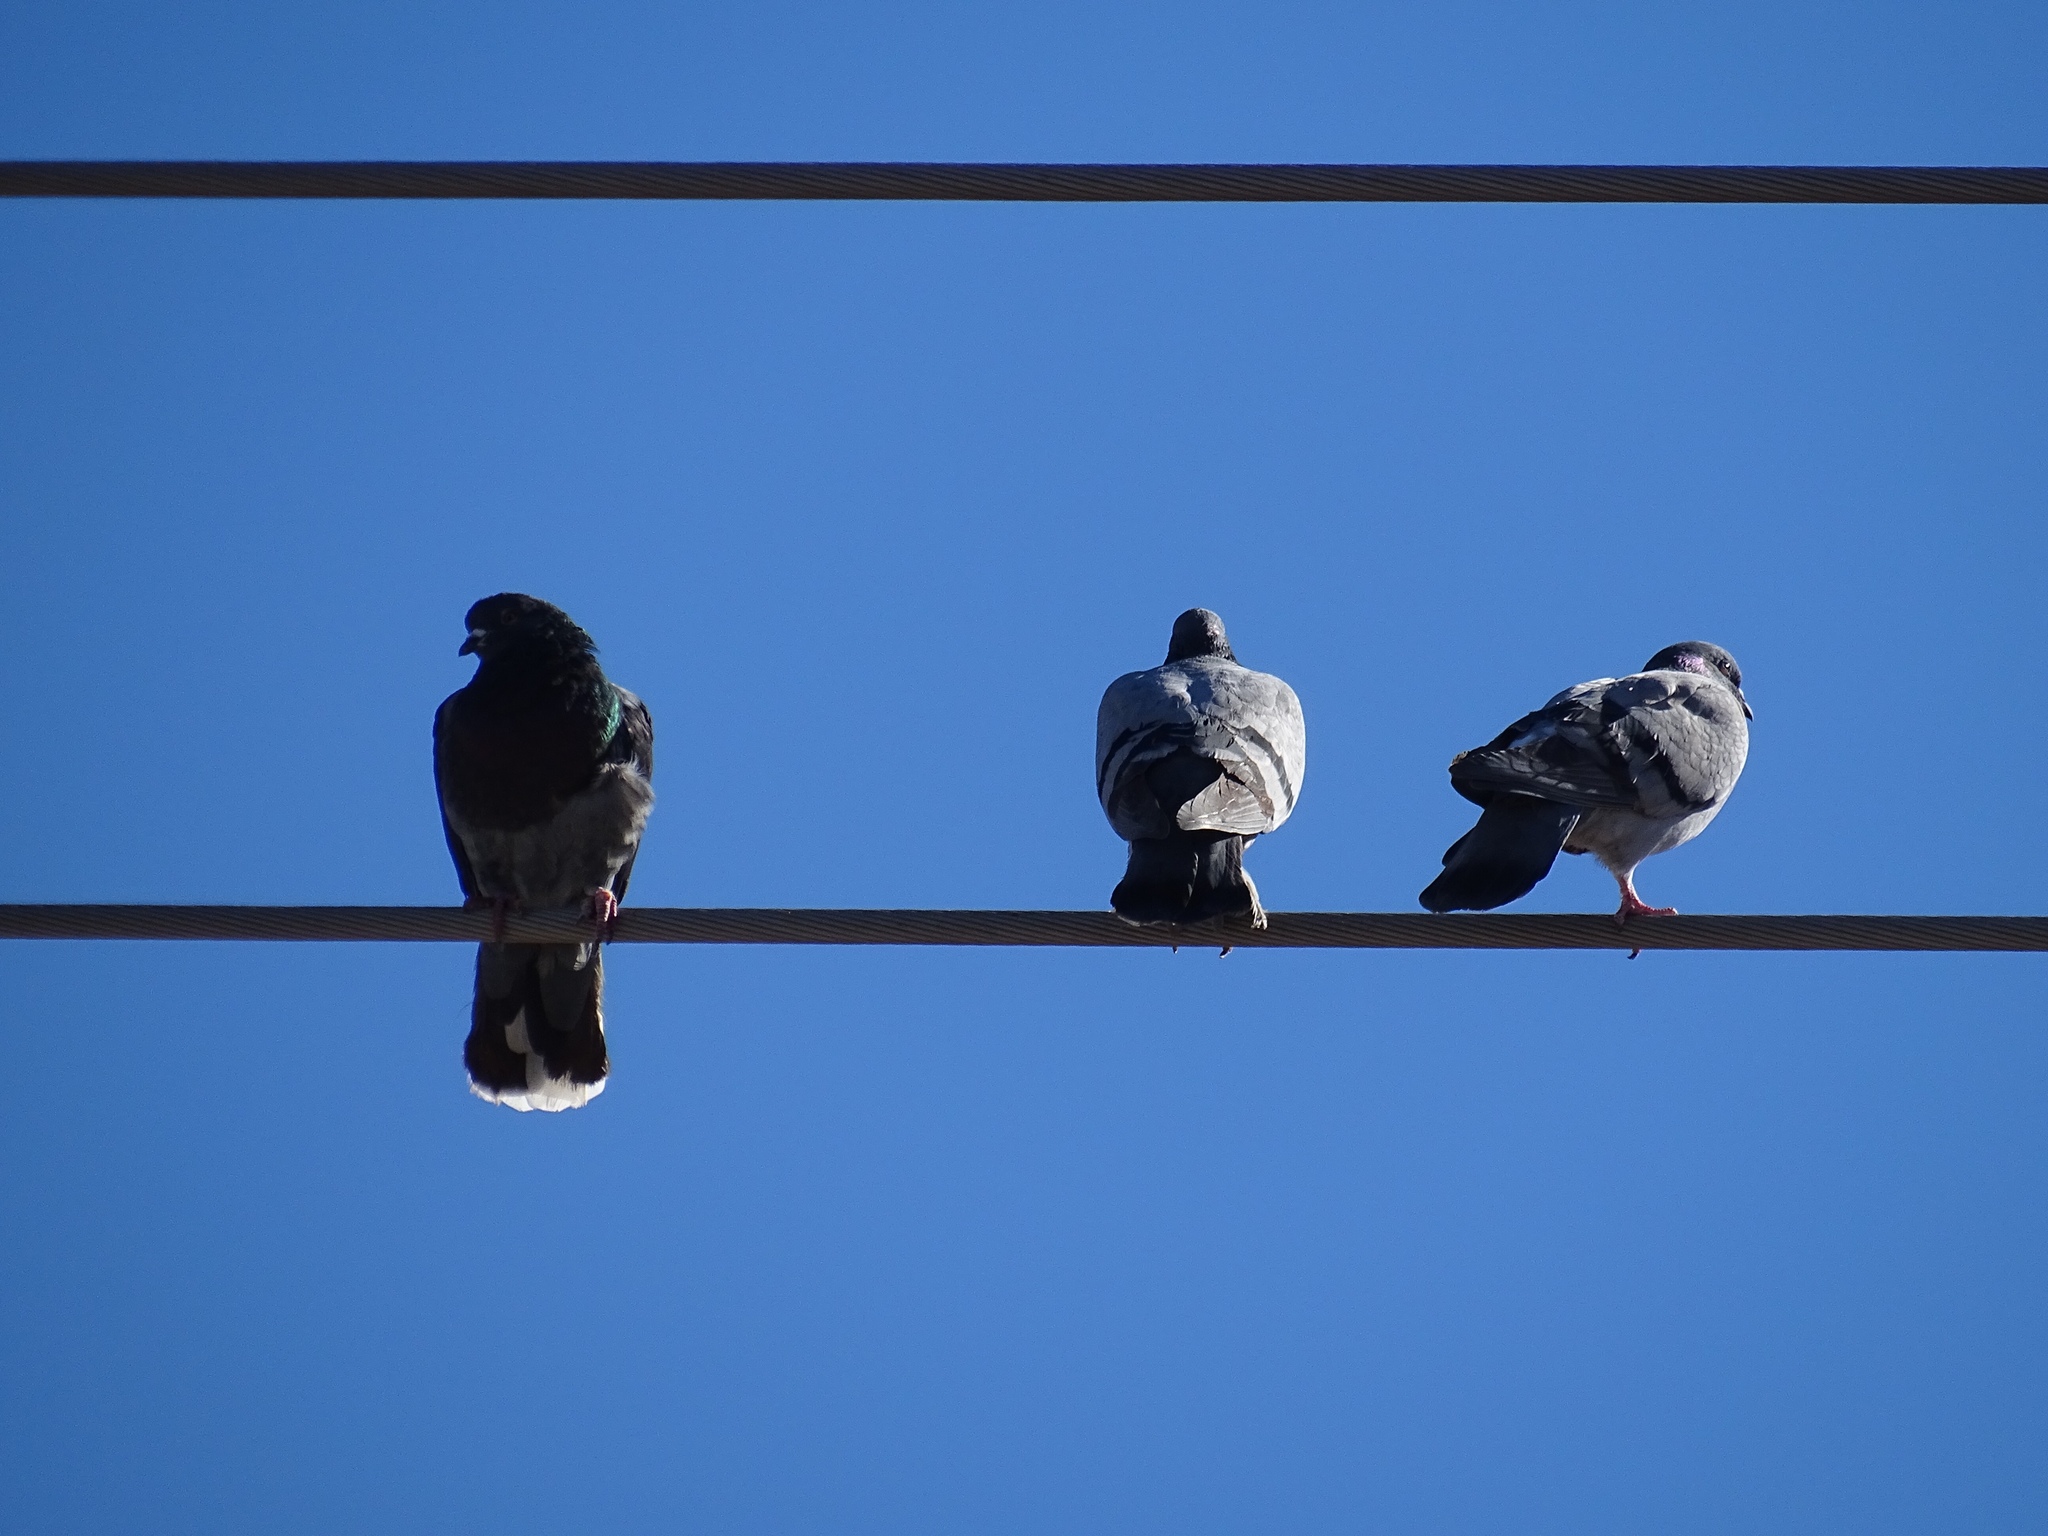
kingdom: Animalia
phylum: Chordata
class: Aves
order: Columbiformes
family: Columbidae
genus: Columba
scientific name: Columba livia
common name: Rock pigeon
